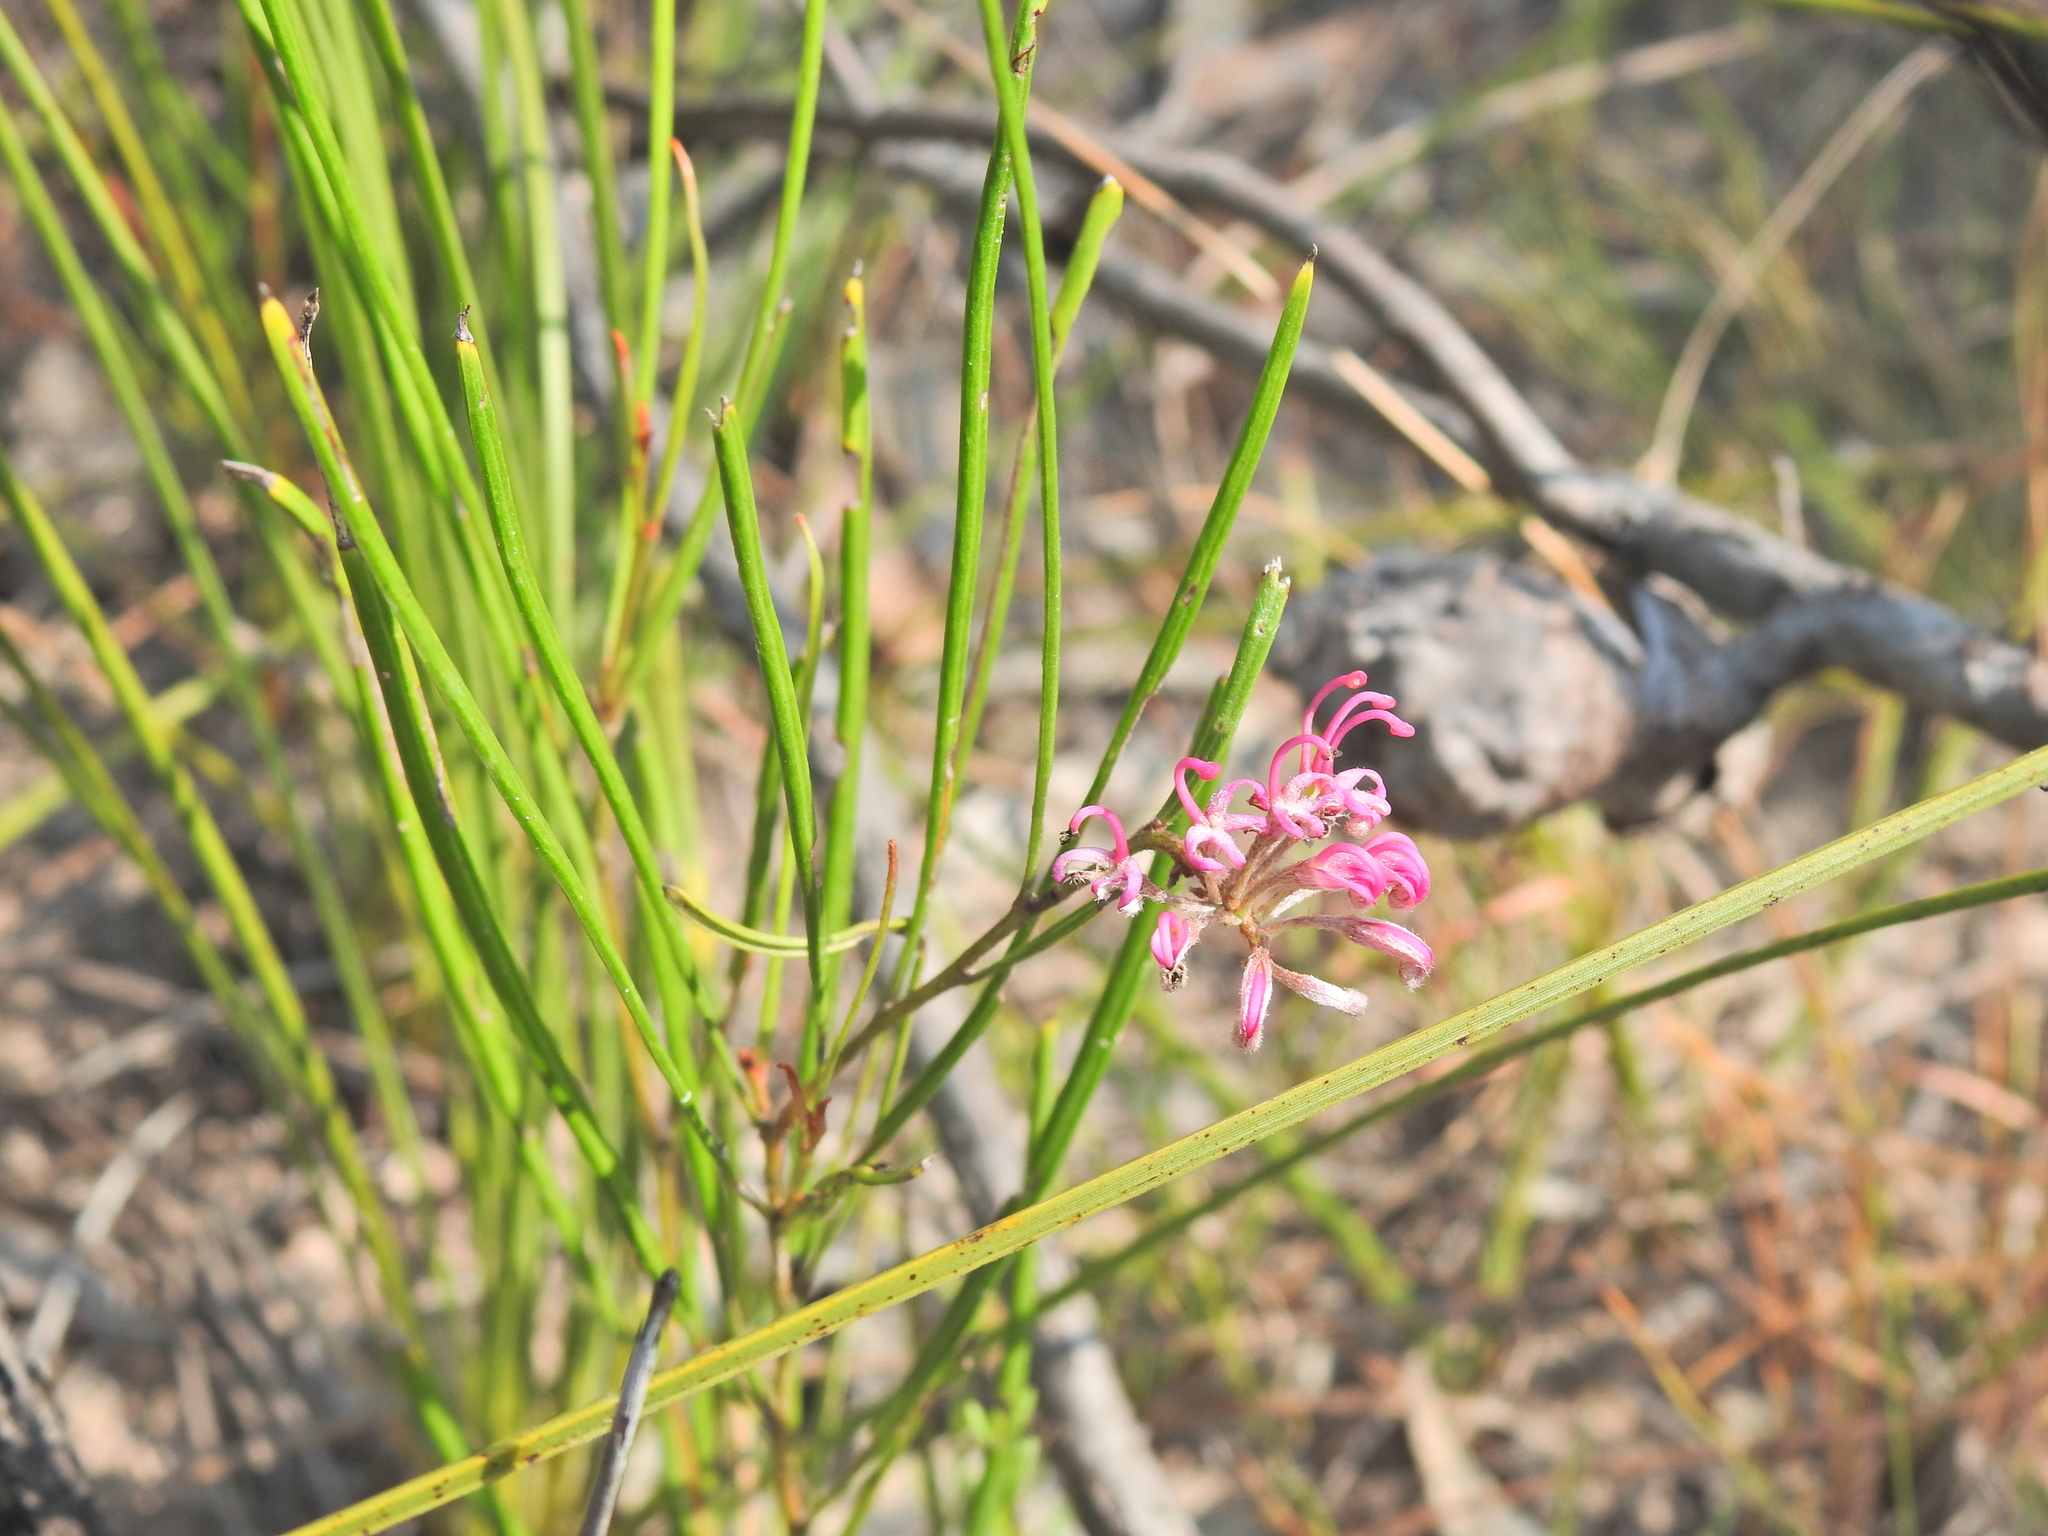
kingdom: Plantae
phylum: Tracheophyta
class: Magnoliopsida
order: Proteales
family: Proteaceae
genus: Grevillea
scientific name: Grevillea reptans
